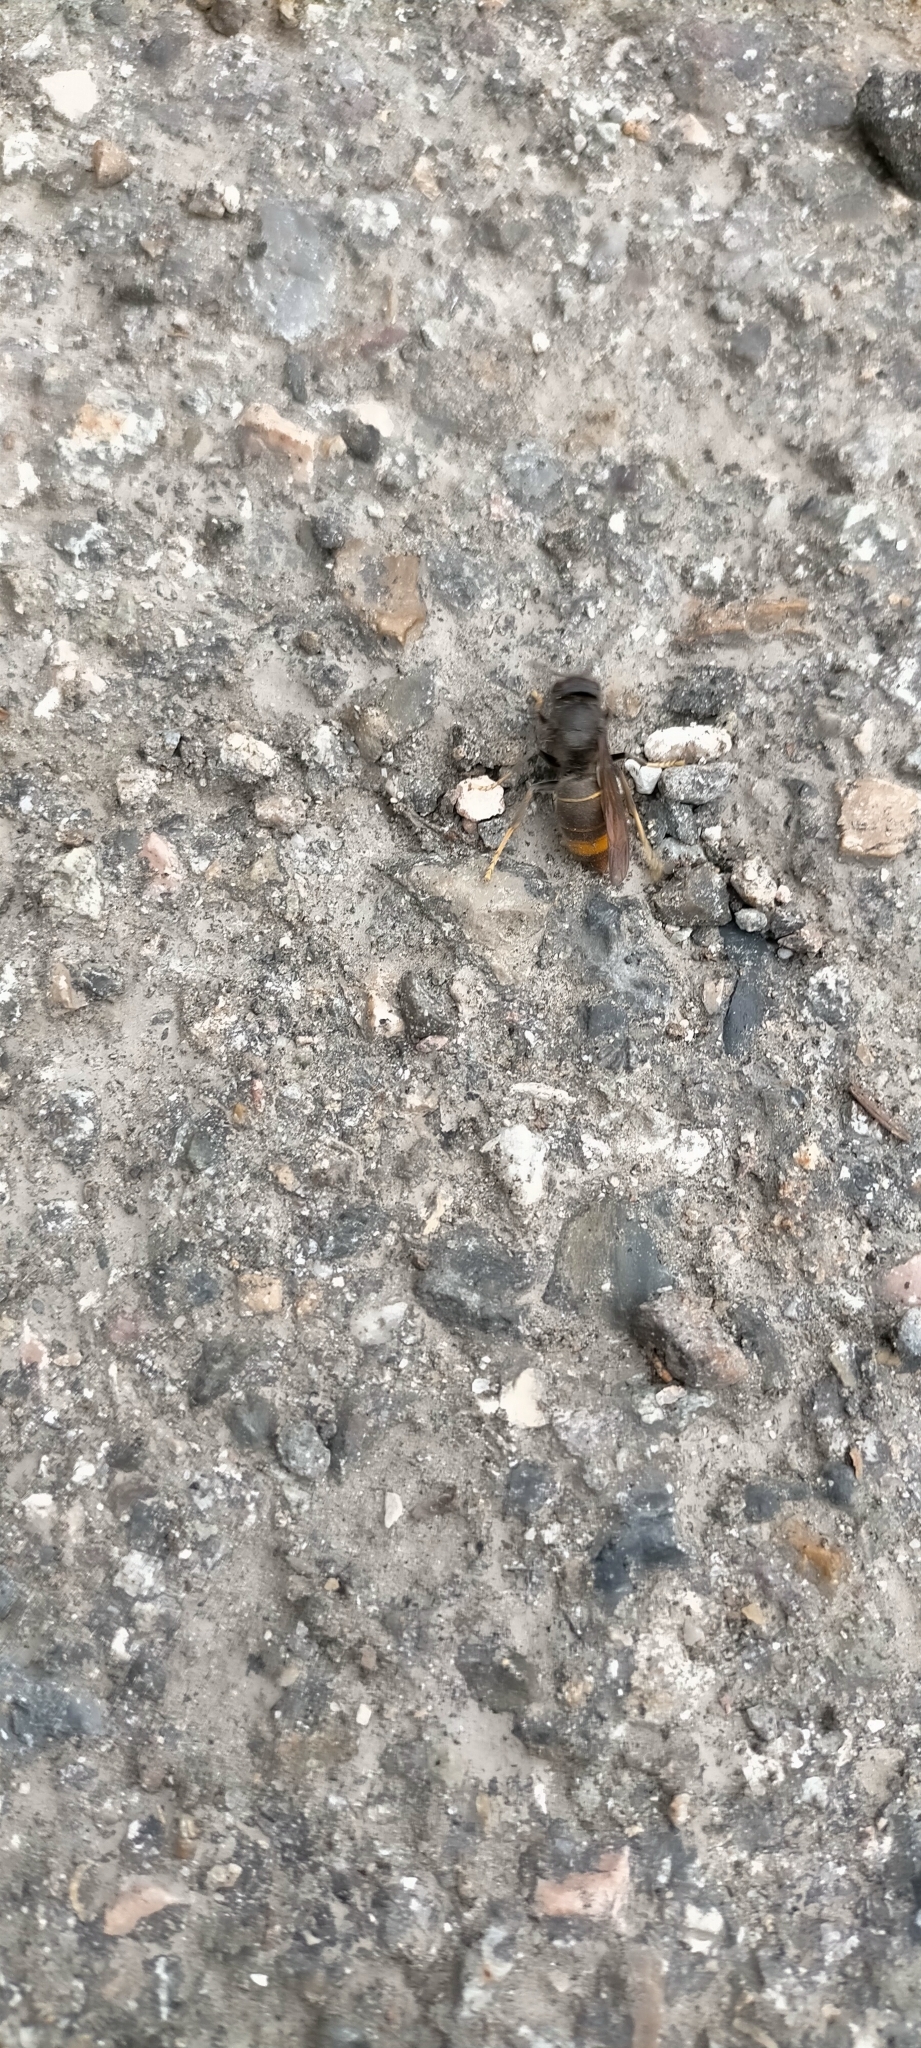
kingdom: Animalia
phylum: Arthropoda
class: Insecta
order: Hymenoptera
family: Vespidae
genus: Vespa
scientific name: Vespa velutina
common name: Asian hornet
